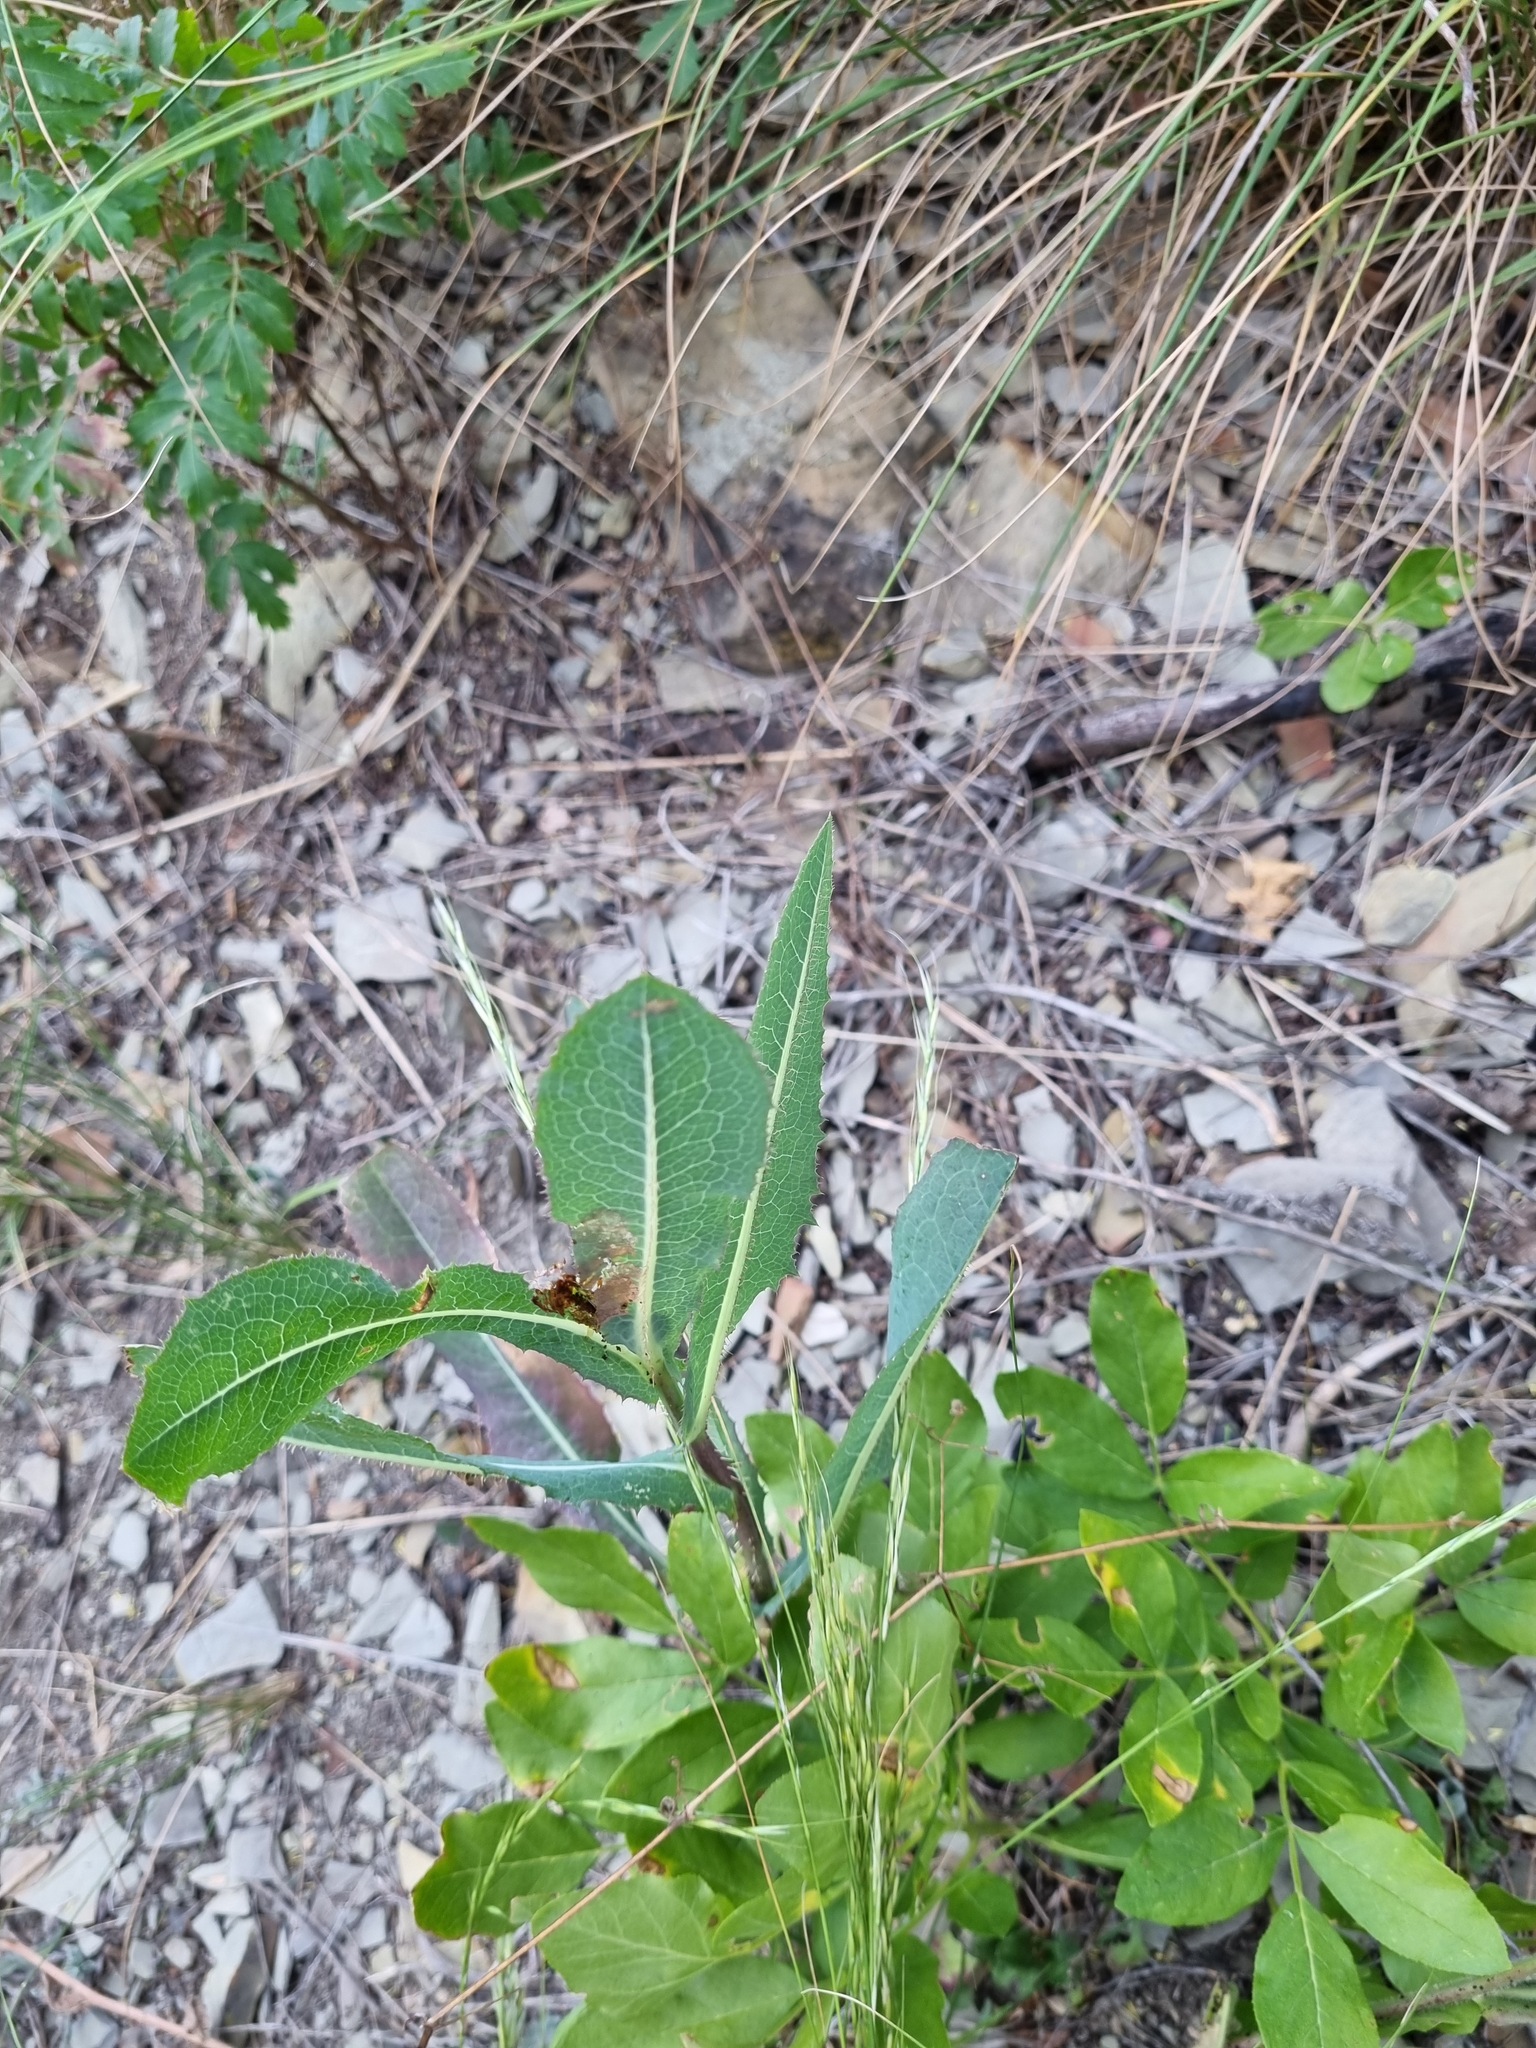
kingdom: Plantae
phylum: Tracheophyta
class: Magnoliopsida
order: Asterales
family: Asteraceae
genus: Lactuca
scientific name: Lactuca serriola
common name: Prickly lettuce
